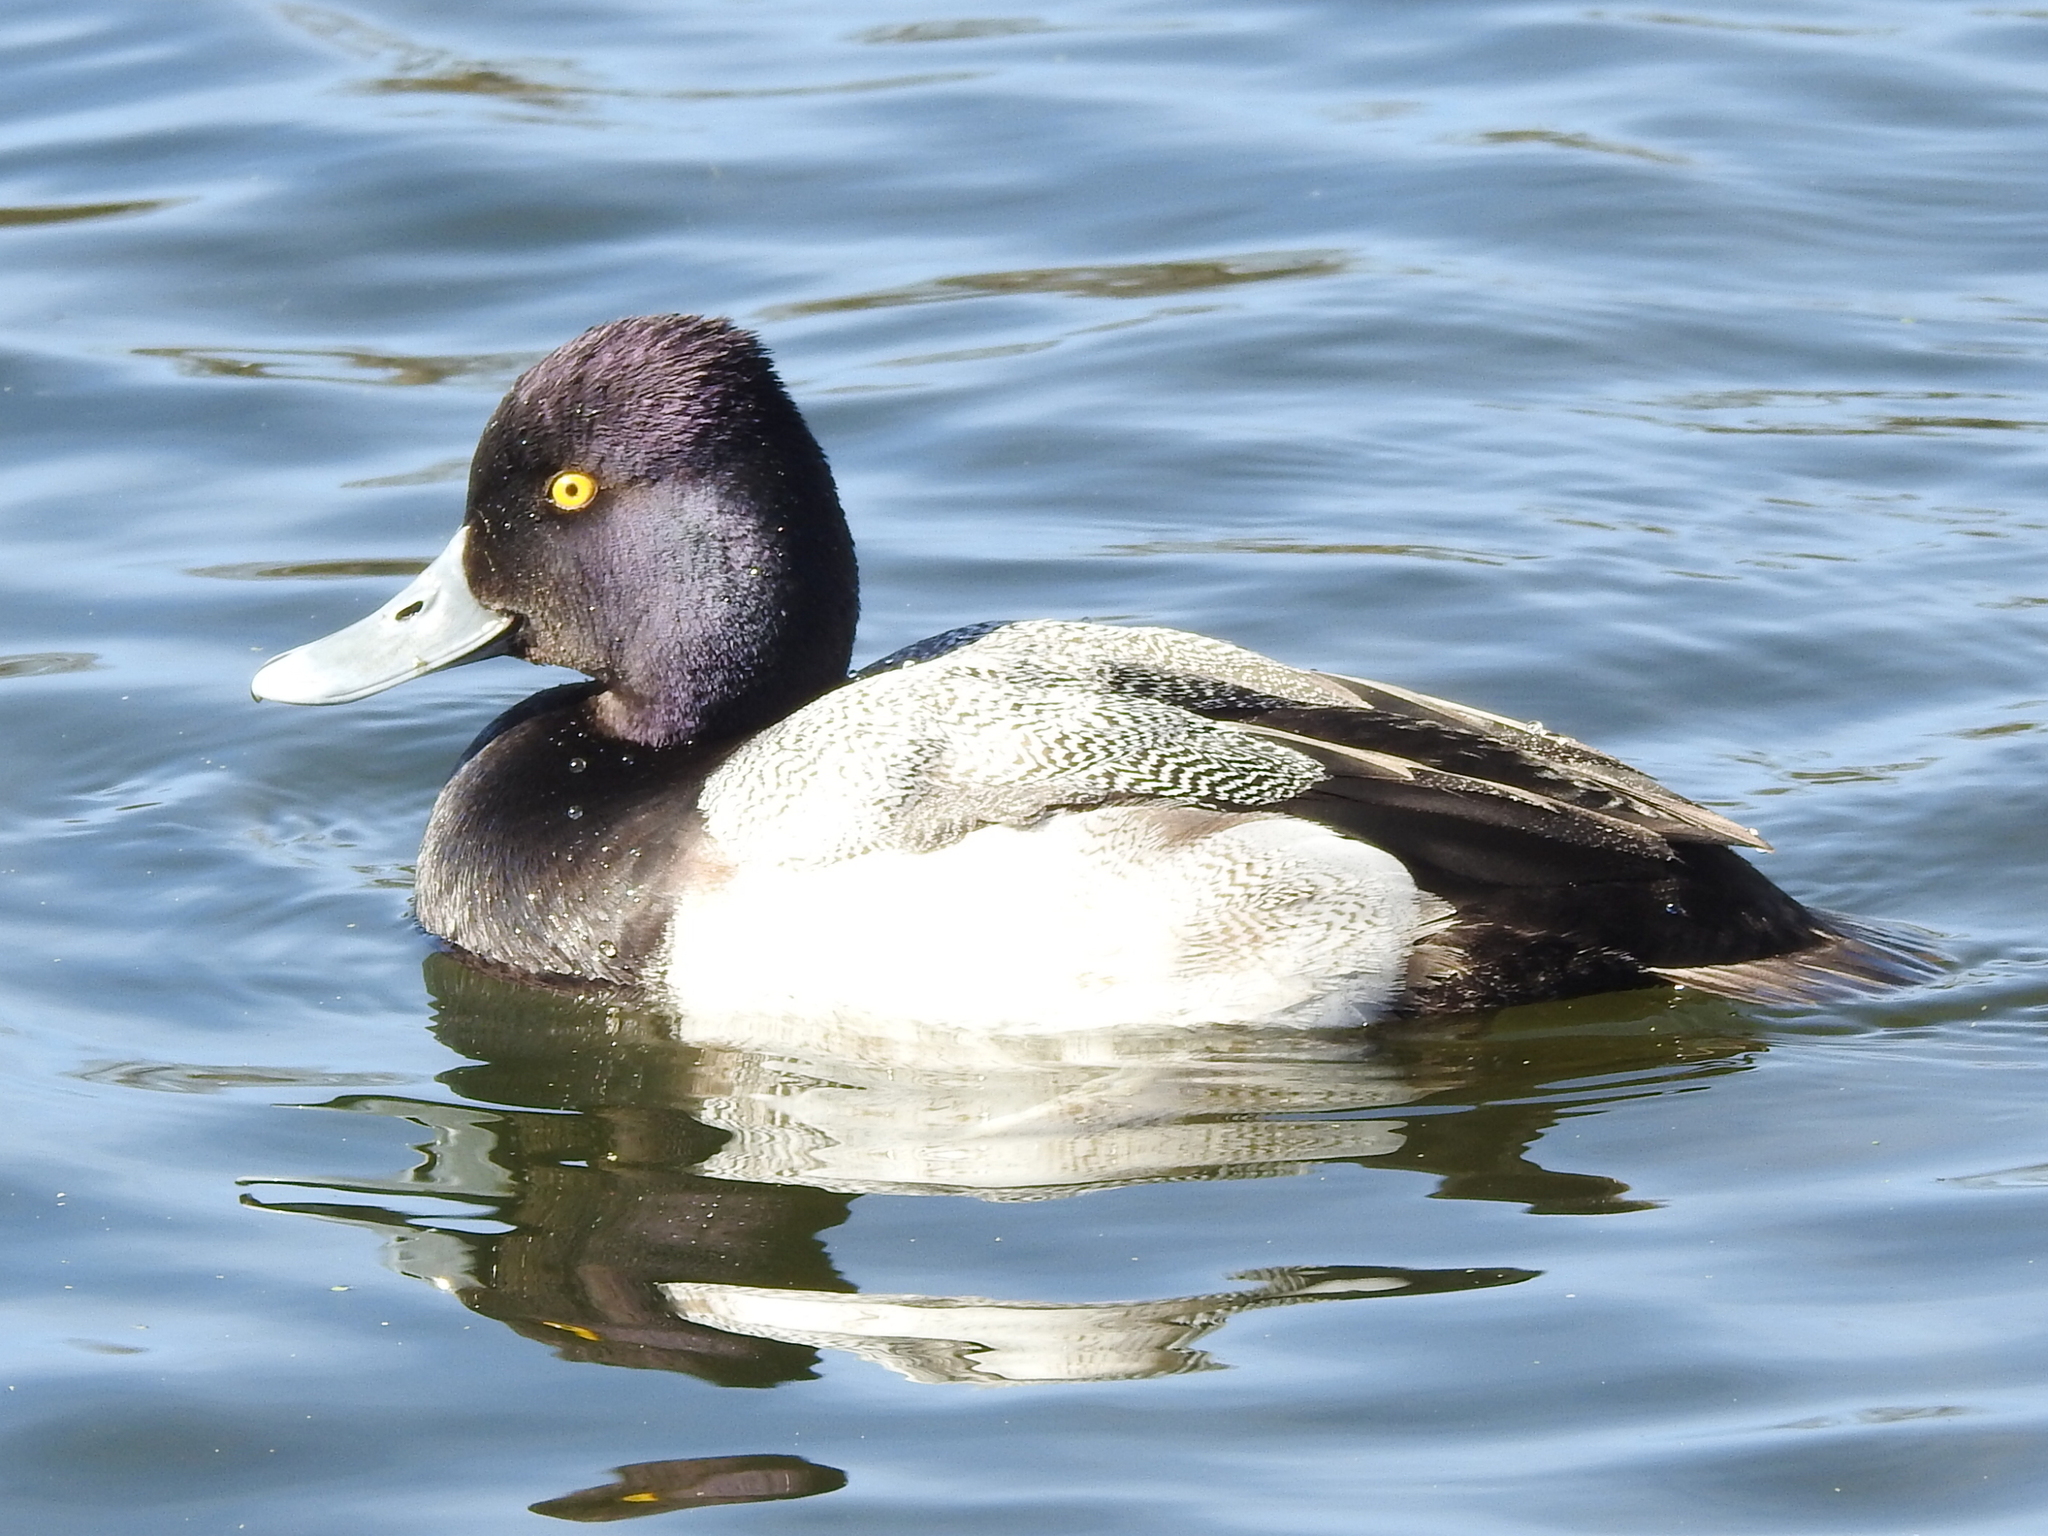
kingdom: Animalia
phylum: Chordata
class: Aves
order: Anseriformes
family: Anatidae
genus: Aythya
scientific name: Aythya affinis
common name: Lesser scaup
